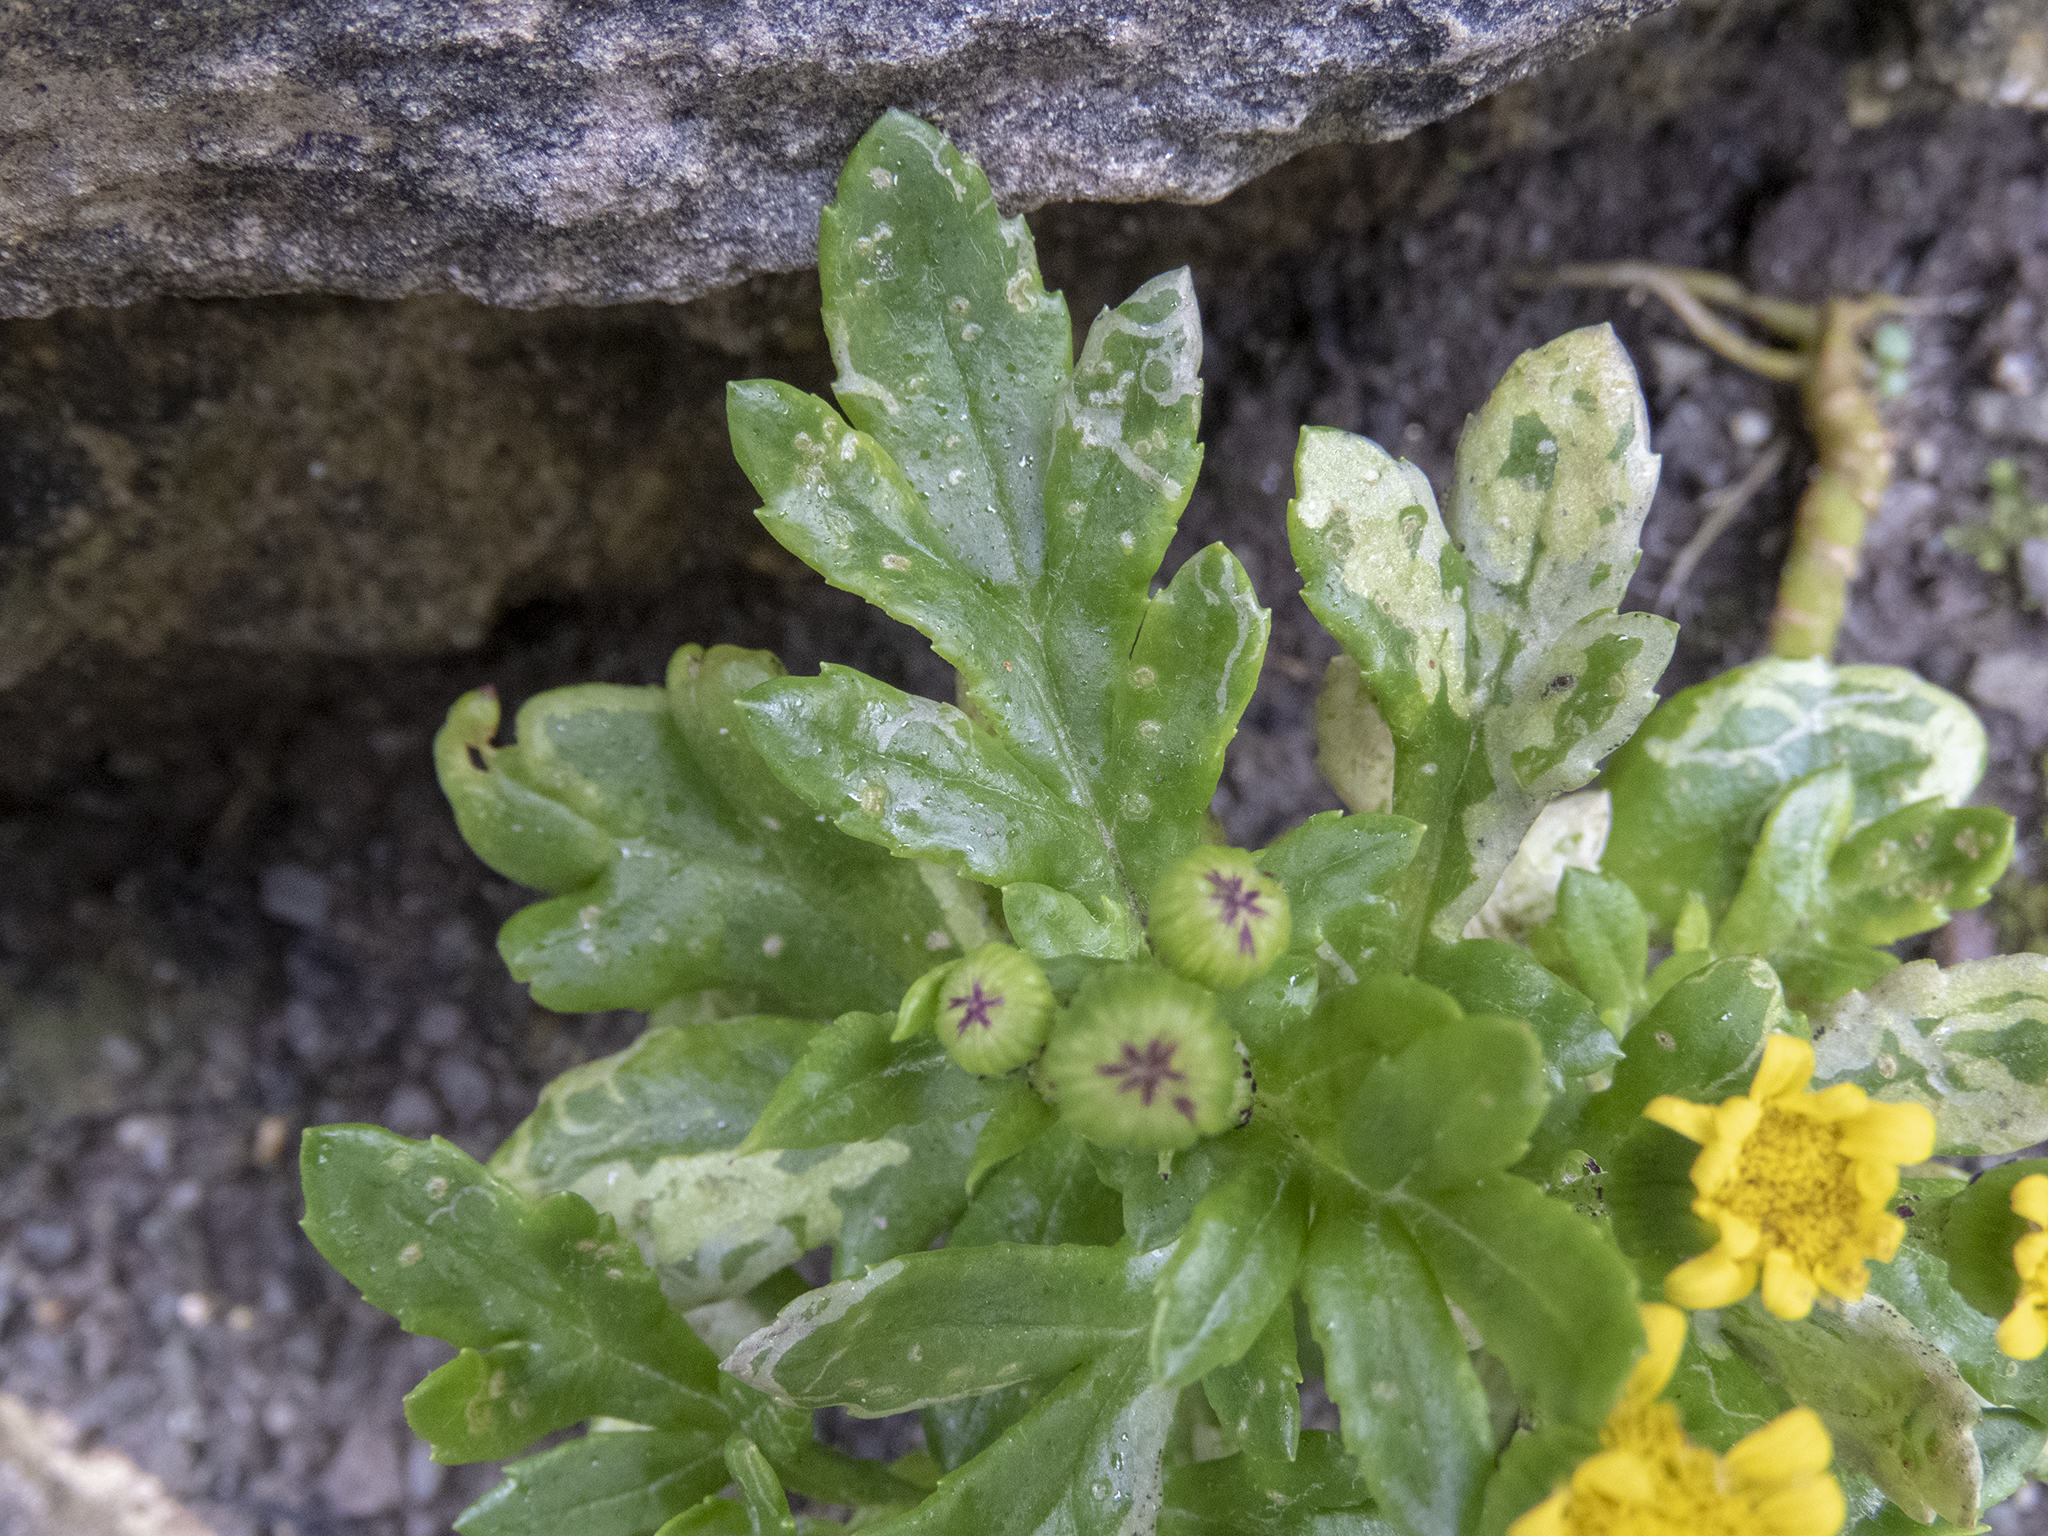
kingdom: Plantae
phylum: Tracheophyta
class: Magnoliopsida
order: Asterales
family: Asteraceae
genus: Senecio
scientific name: Senecio lautus
